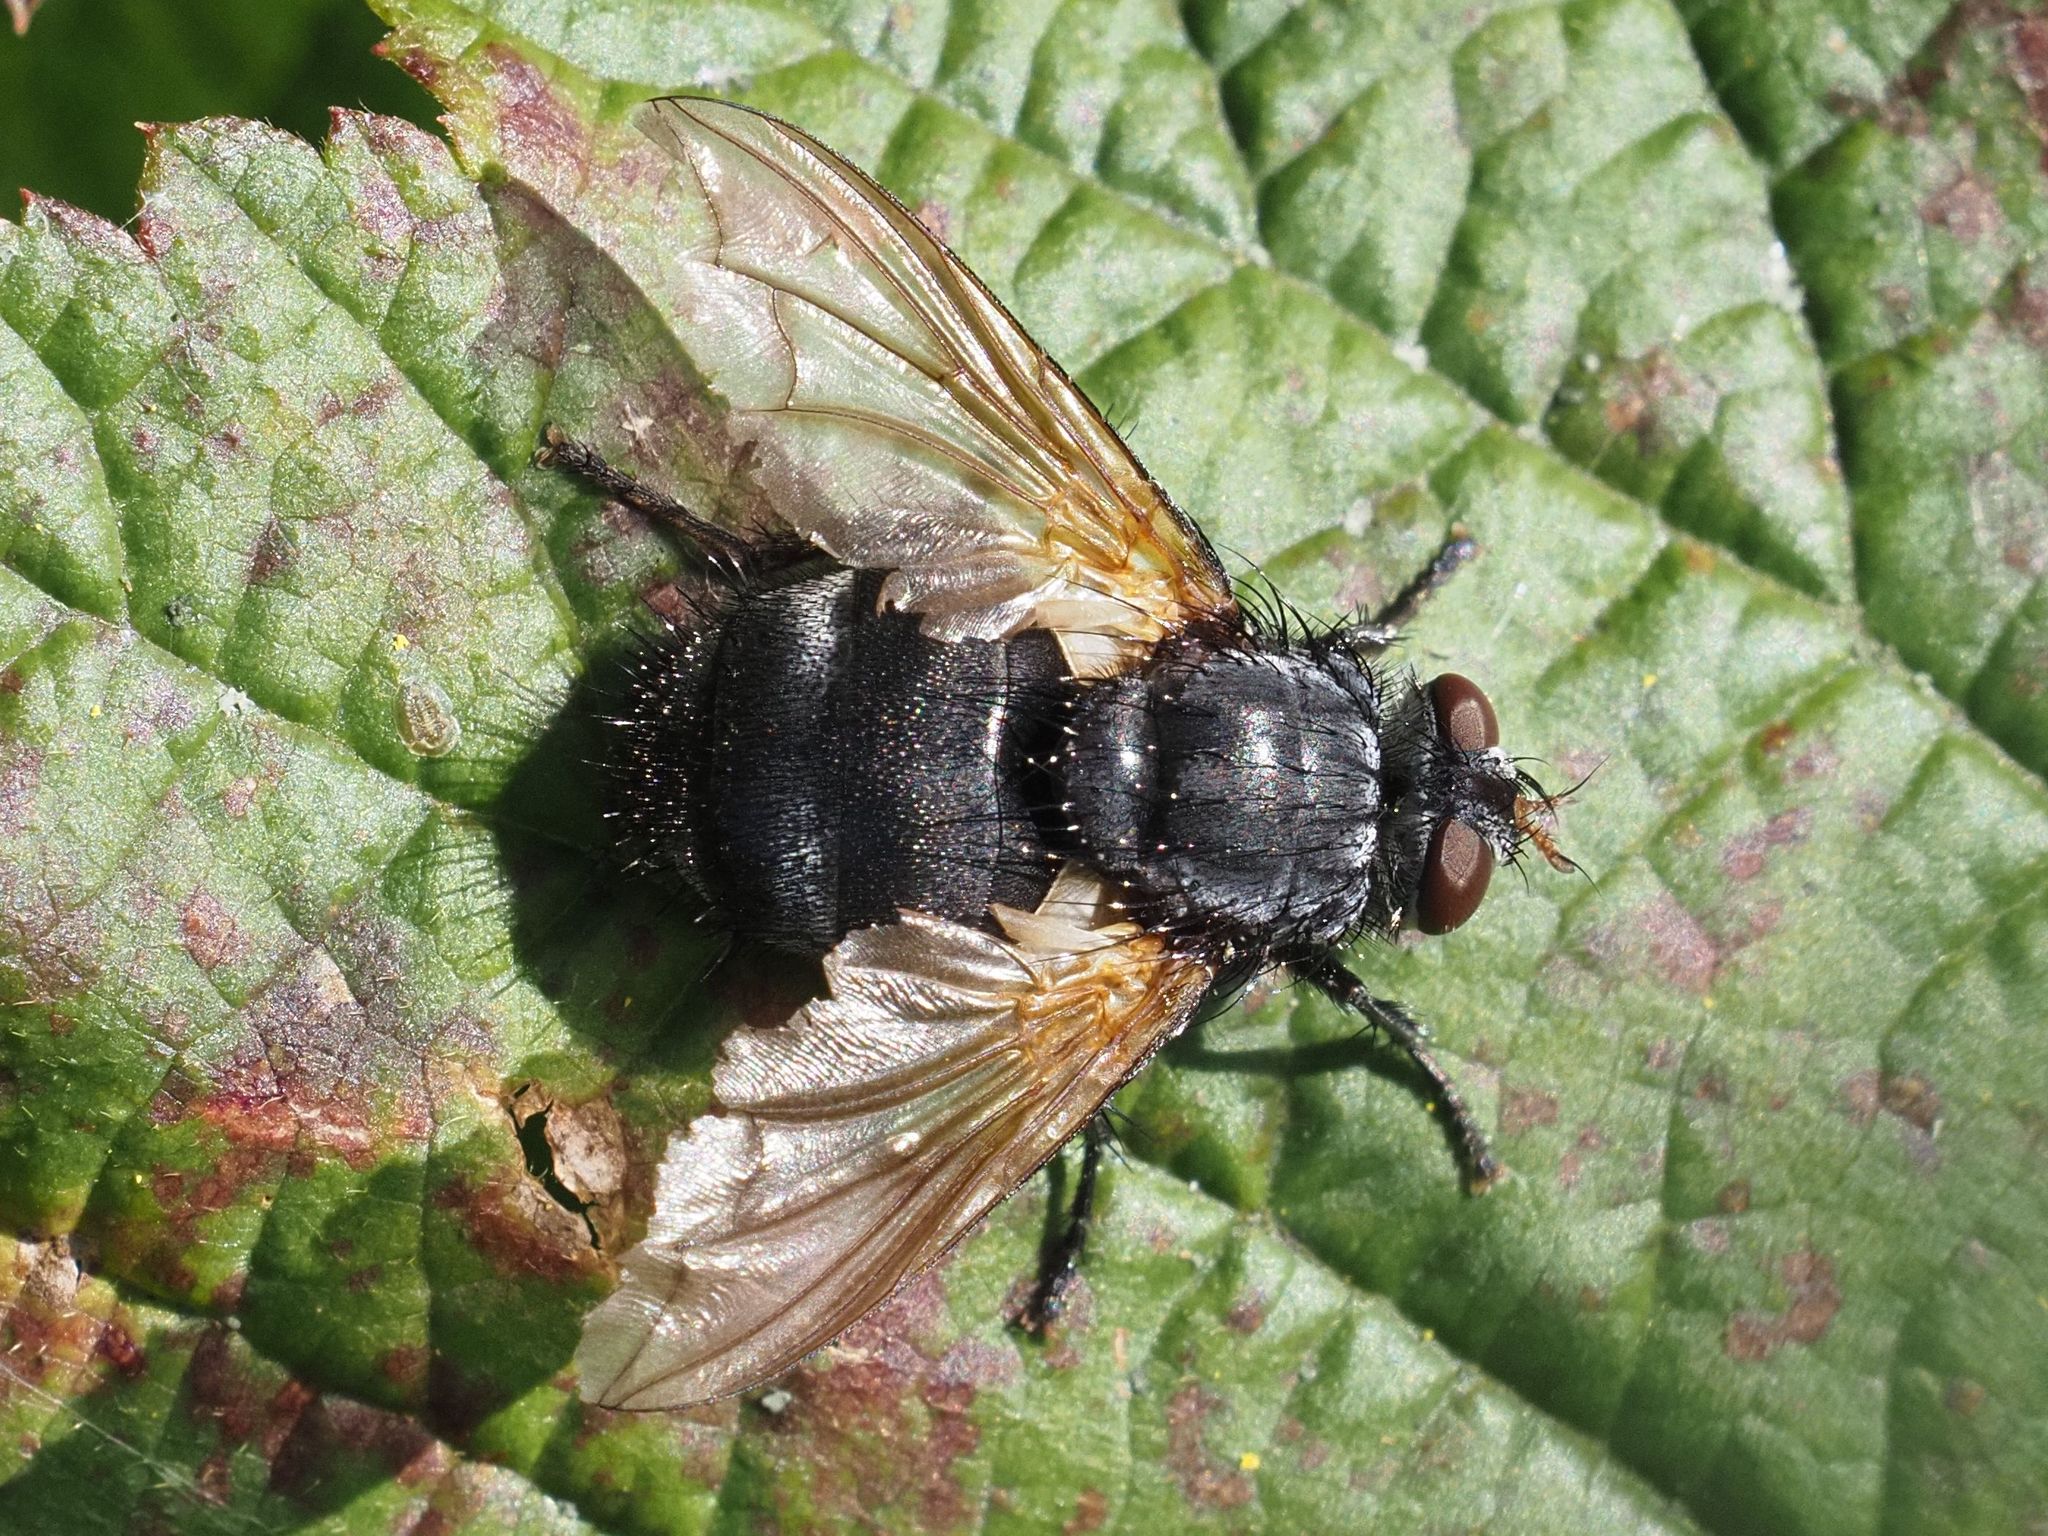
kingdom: Animalia
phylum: Arthropoda
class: Insecta
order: Diptera
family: Tachinidae
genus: Nemoraea
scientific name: Nemoraea pellucida
